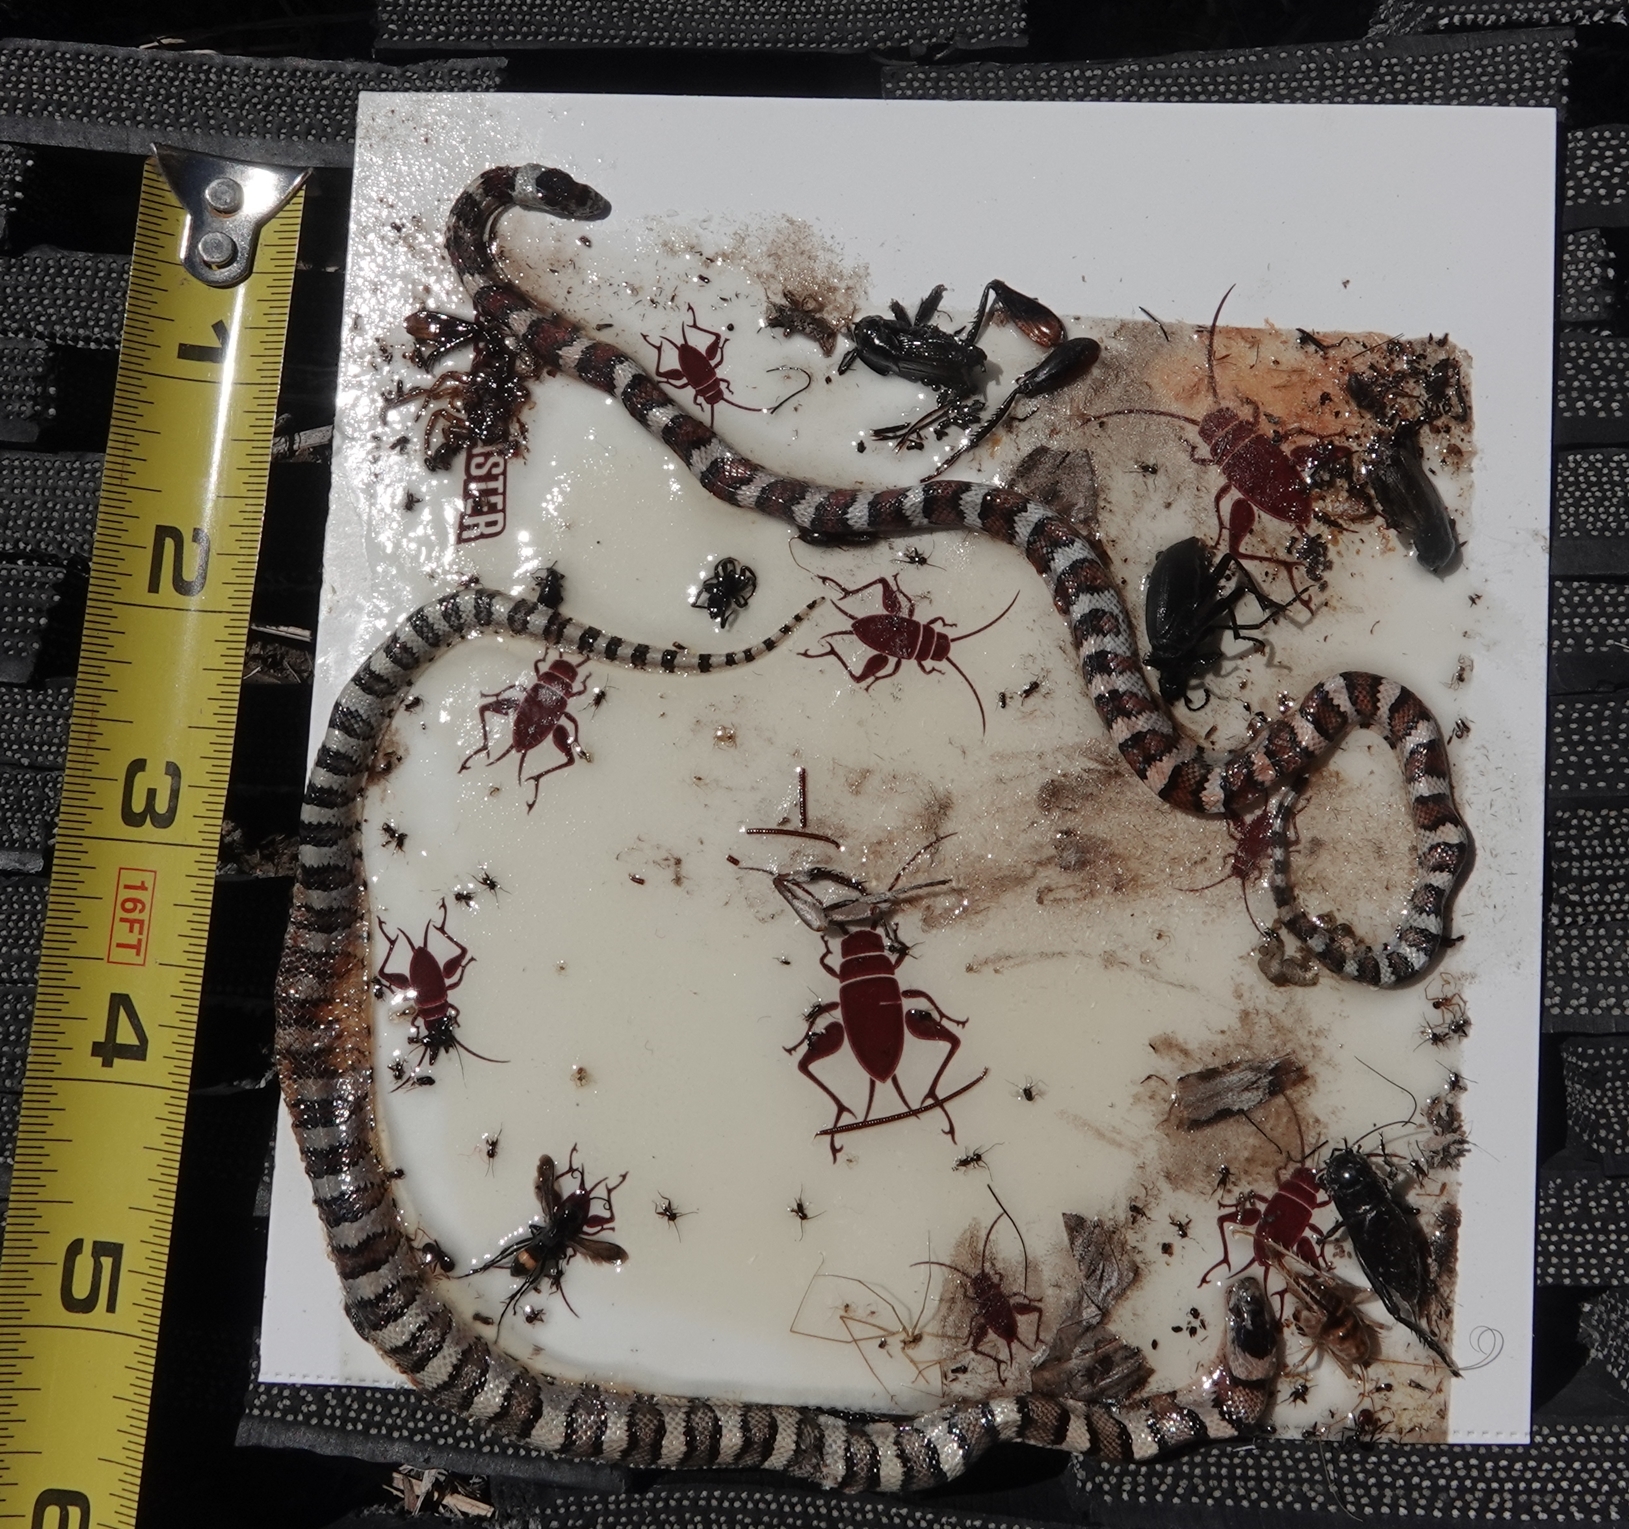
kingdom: Animalia
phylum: Chordata
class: Squamata
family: Colubridae
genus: Lampropeltis
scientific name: Lampropeltis gentilis
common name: Central plains milksnake
